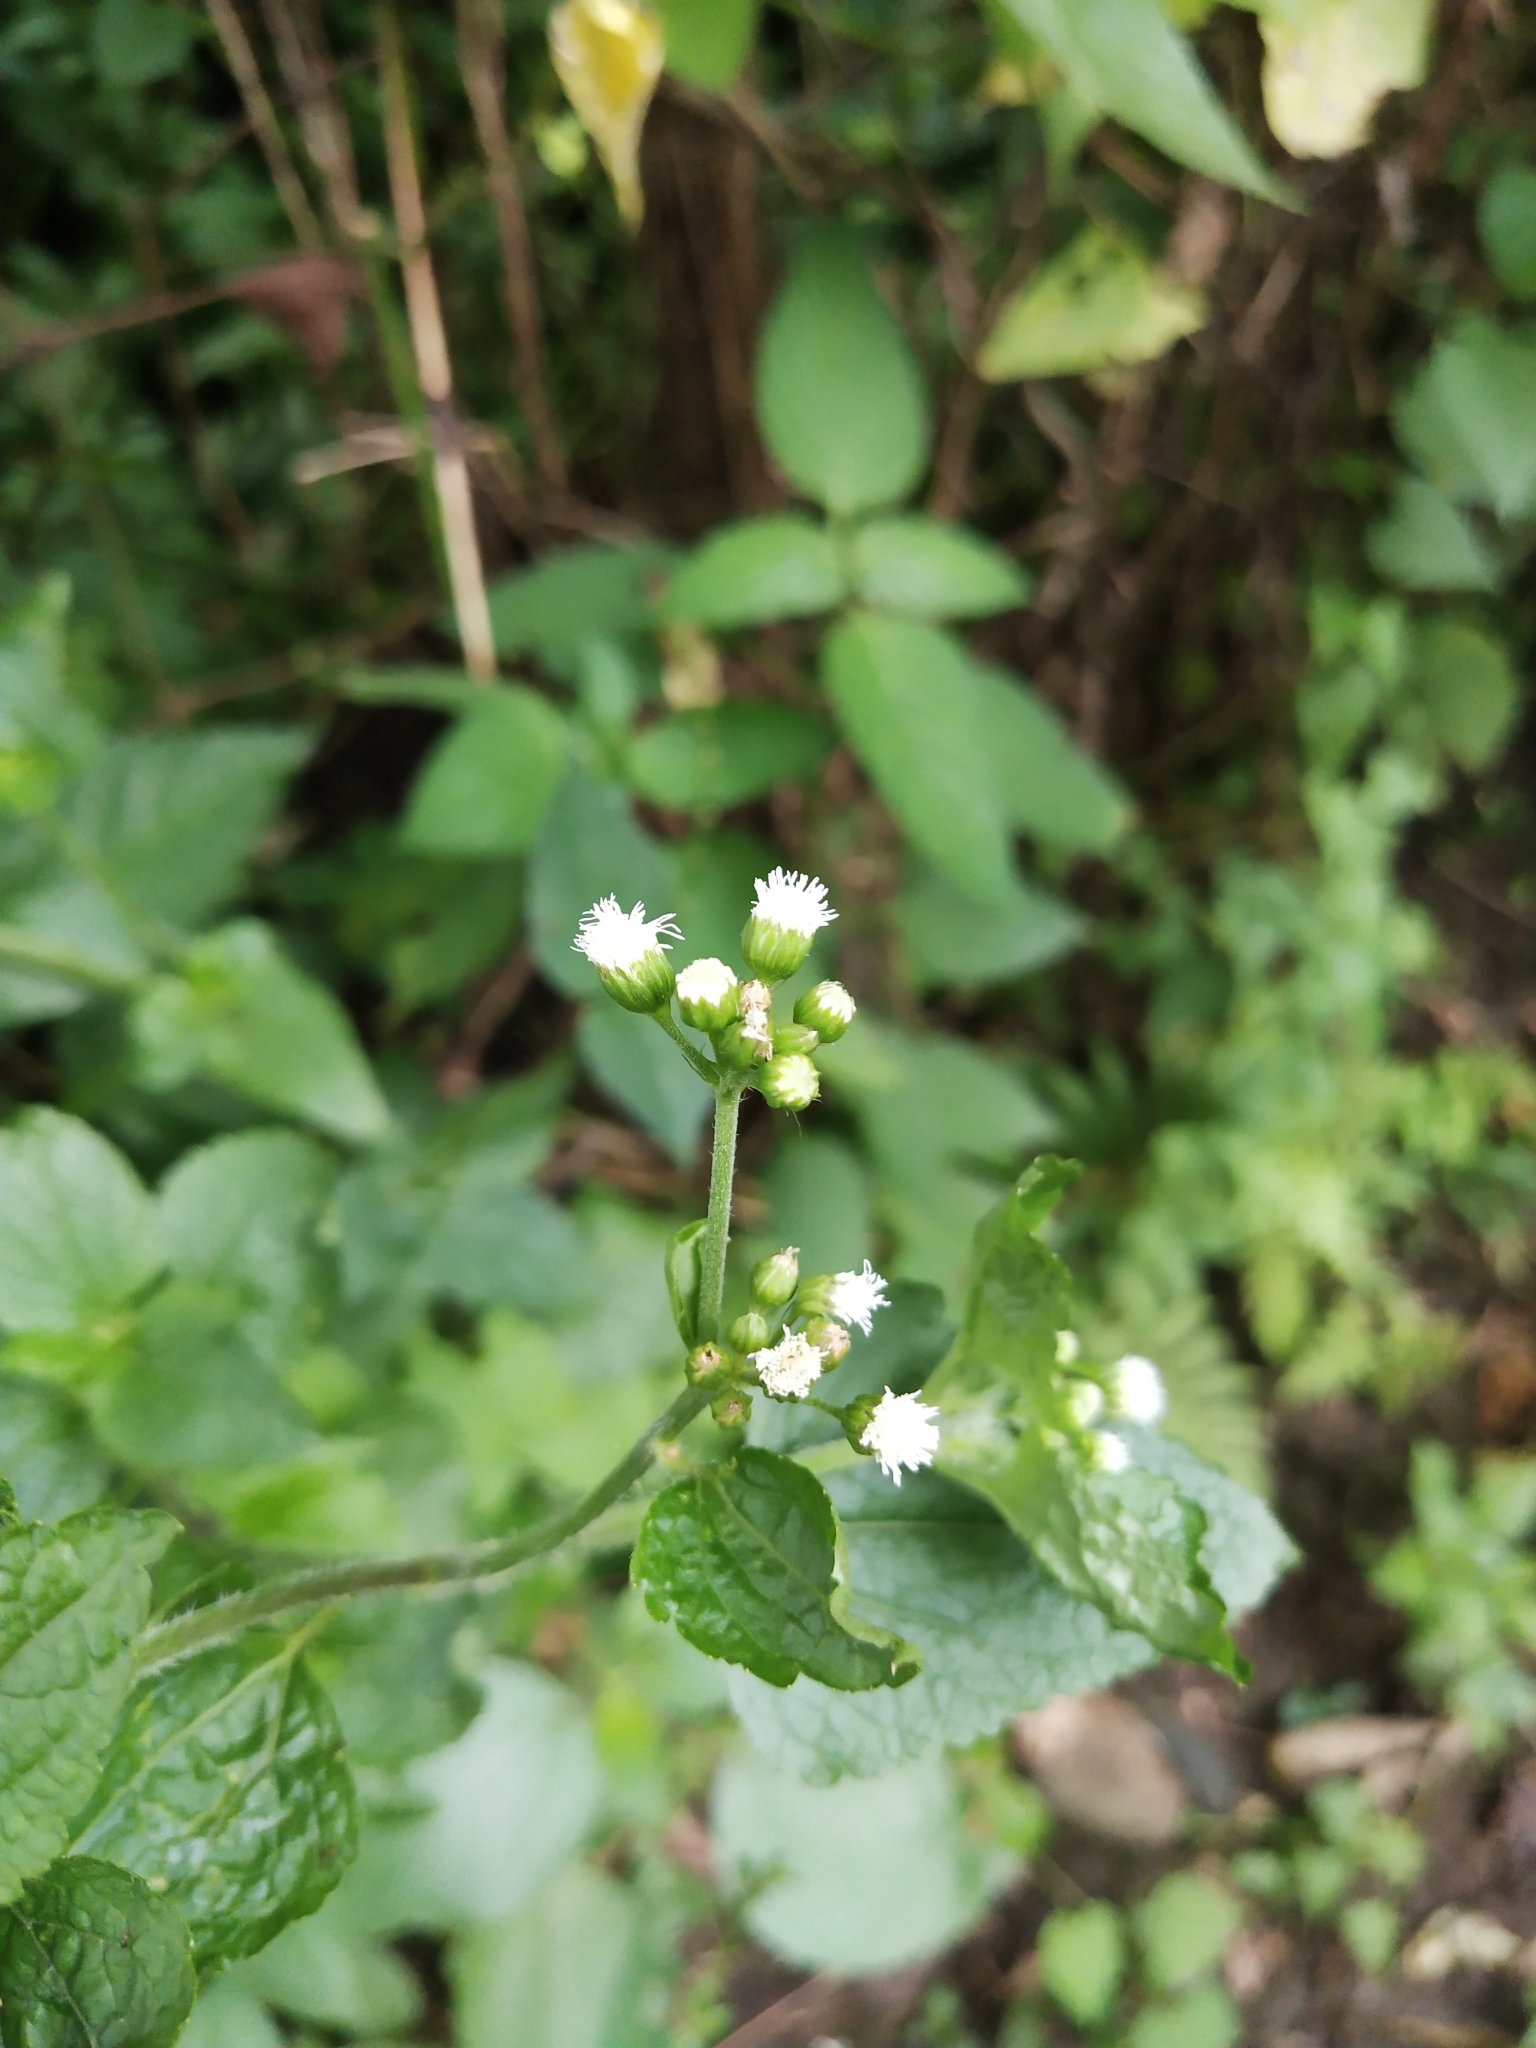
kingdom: Plantae
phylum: Tracheophyta
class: Magnoliopsida
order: Asterales
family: Asteraceae
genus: Ageratum
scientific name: Ageratum conyzoides
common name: Tropical whiteweed
